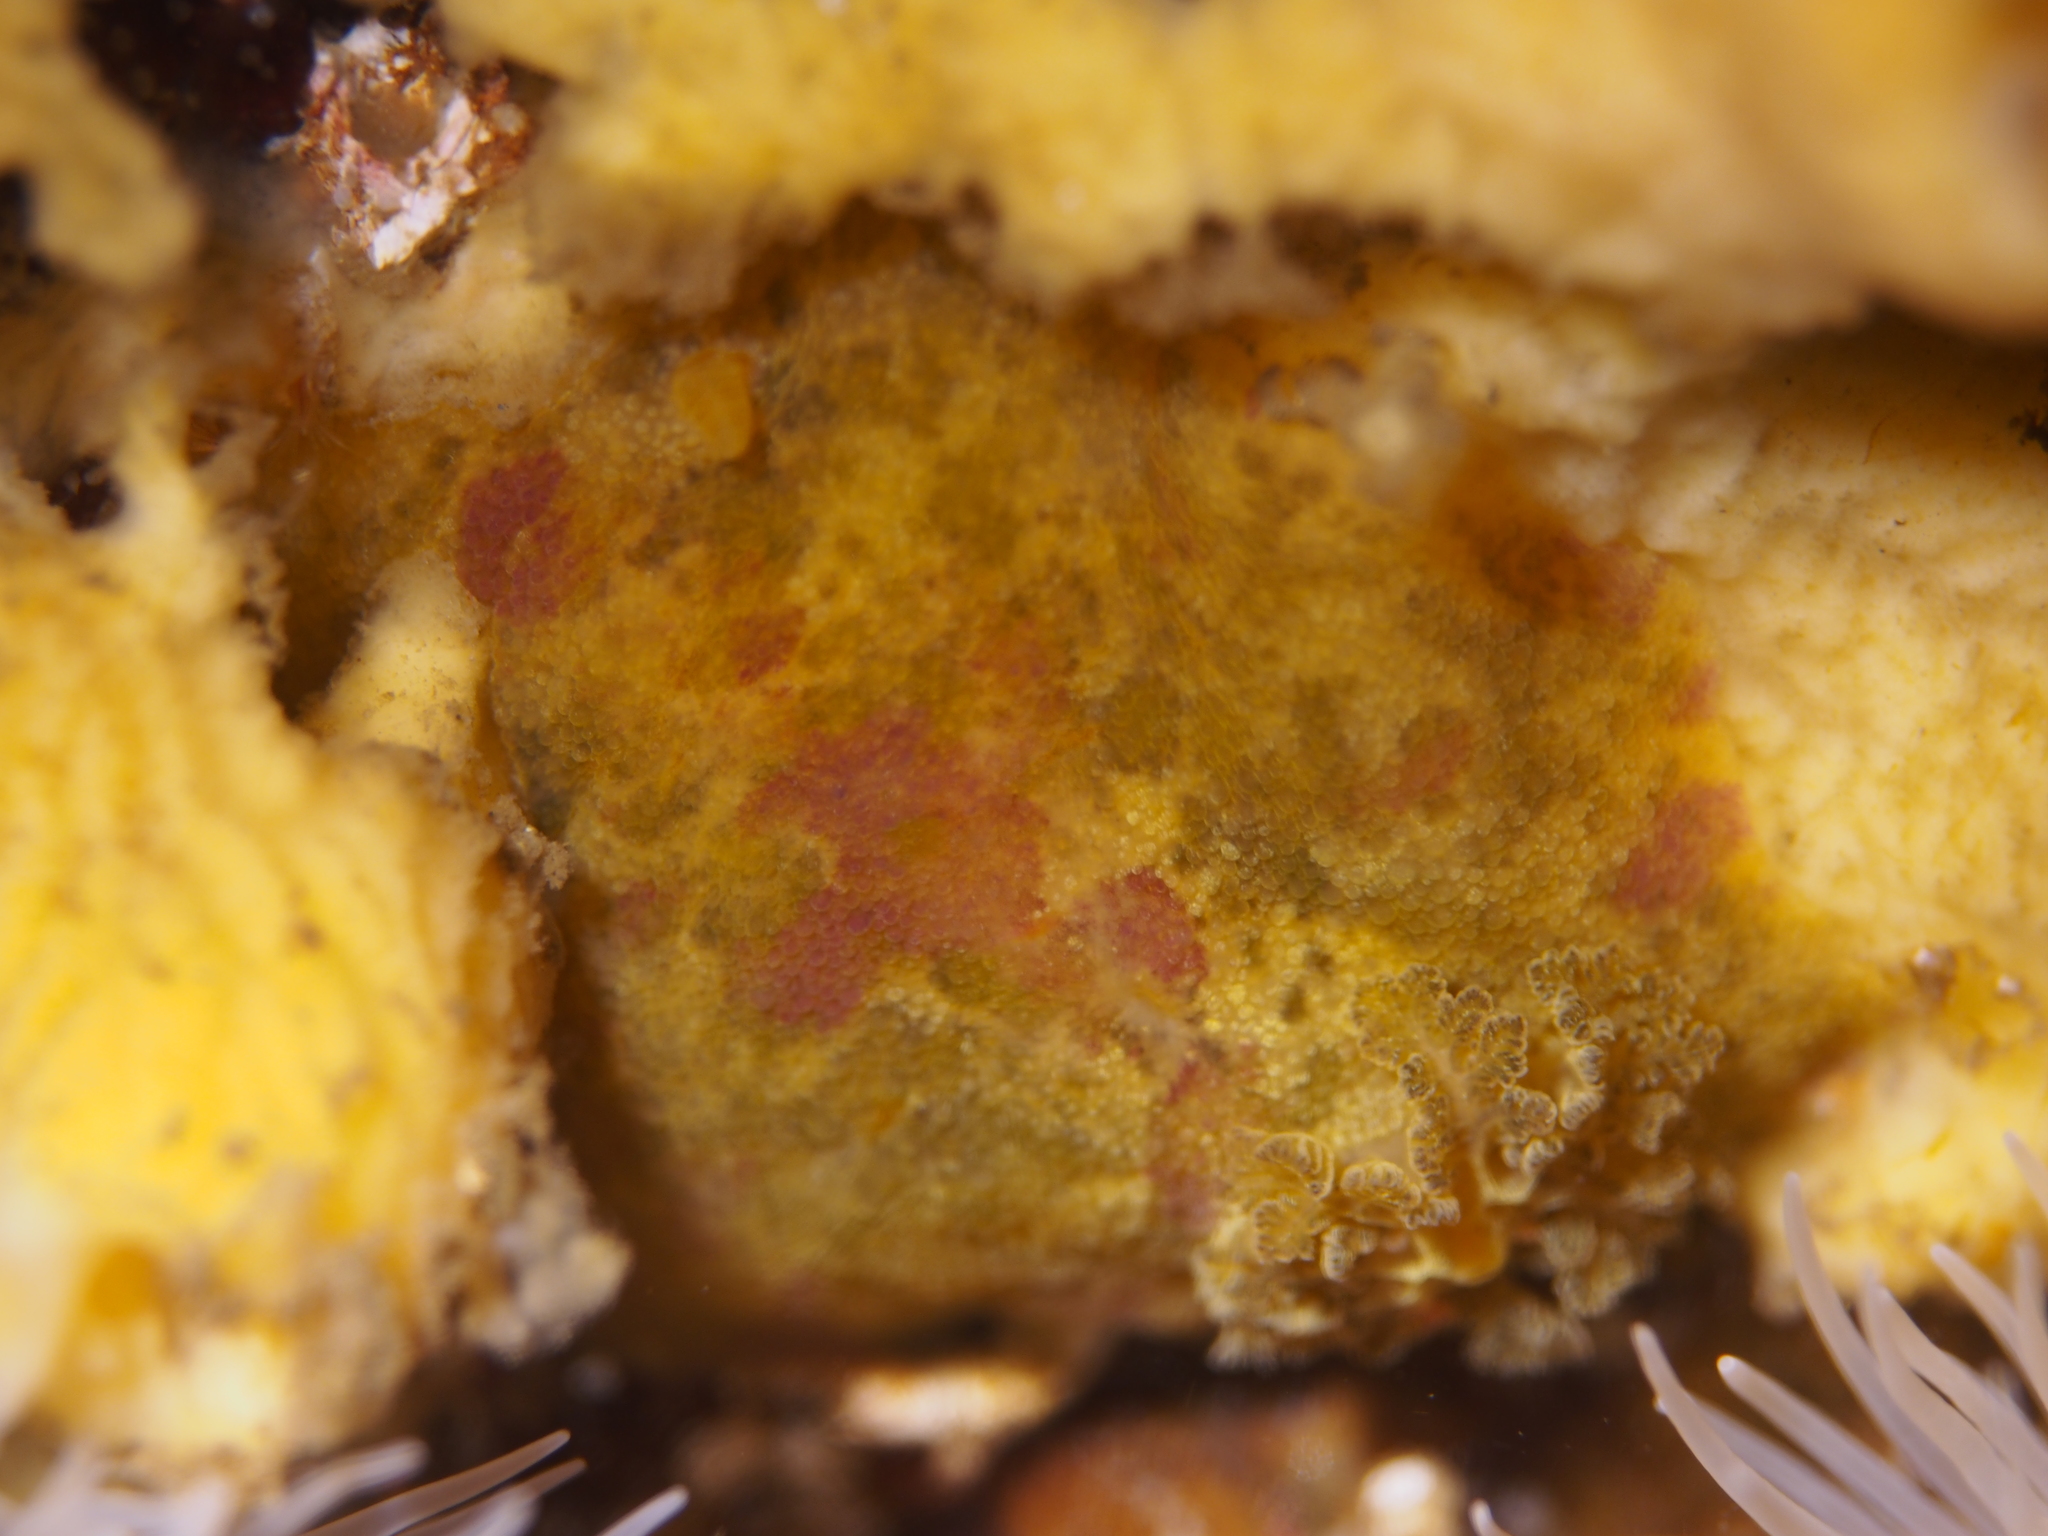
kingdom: Animalia
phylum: Mollusca
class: Gastropoda
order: Nudibranchia
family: Dorididae
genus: Doris
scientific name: Doris pseudoargus
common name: Sea lemon
